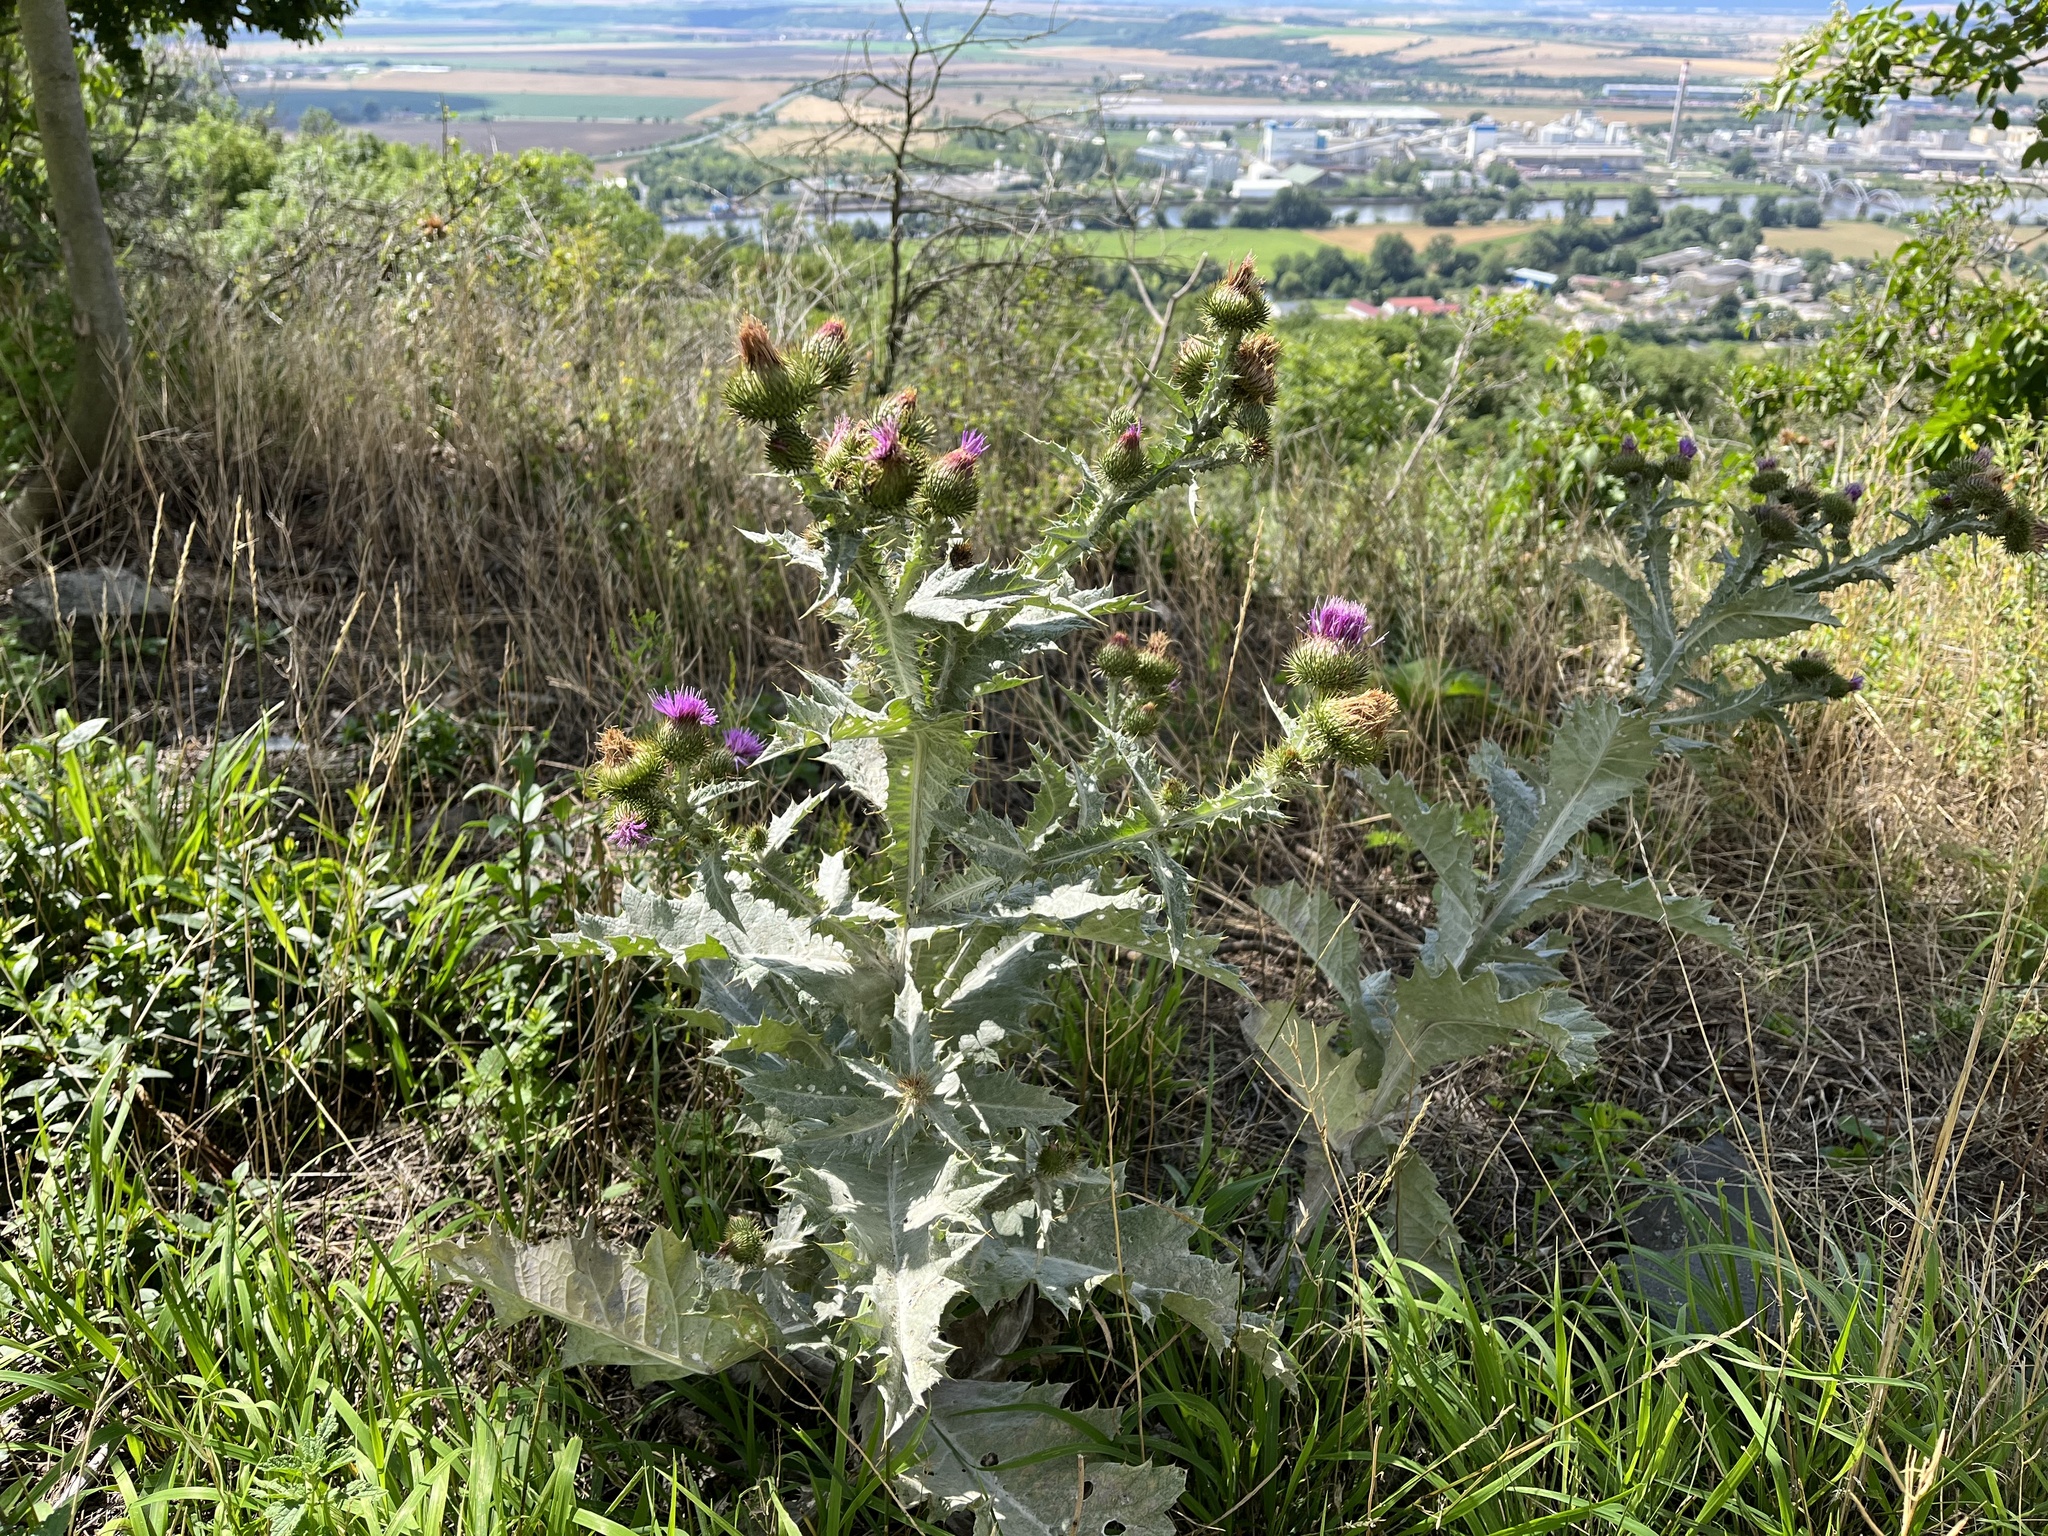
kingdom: Plantae
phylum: Tracheophyta
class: Magnoliopsida
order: Asterales
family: Asteraceae
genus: Onopordum
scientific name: Onopordum acanthium
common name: Scotch thistle
